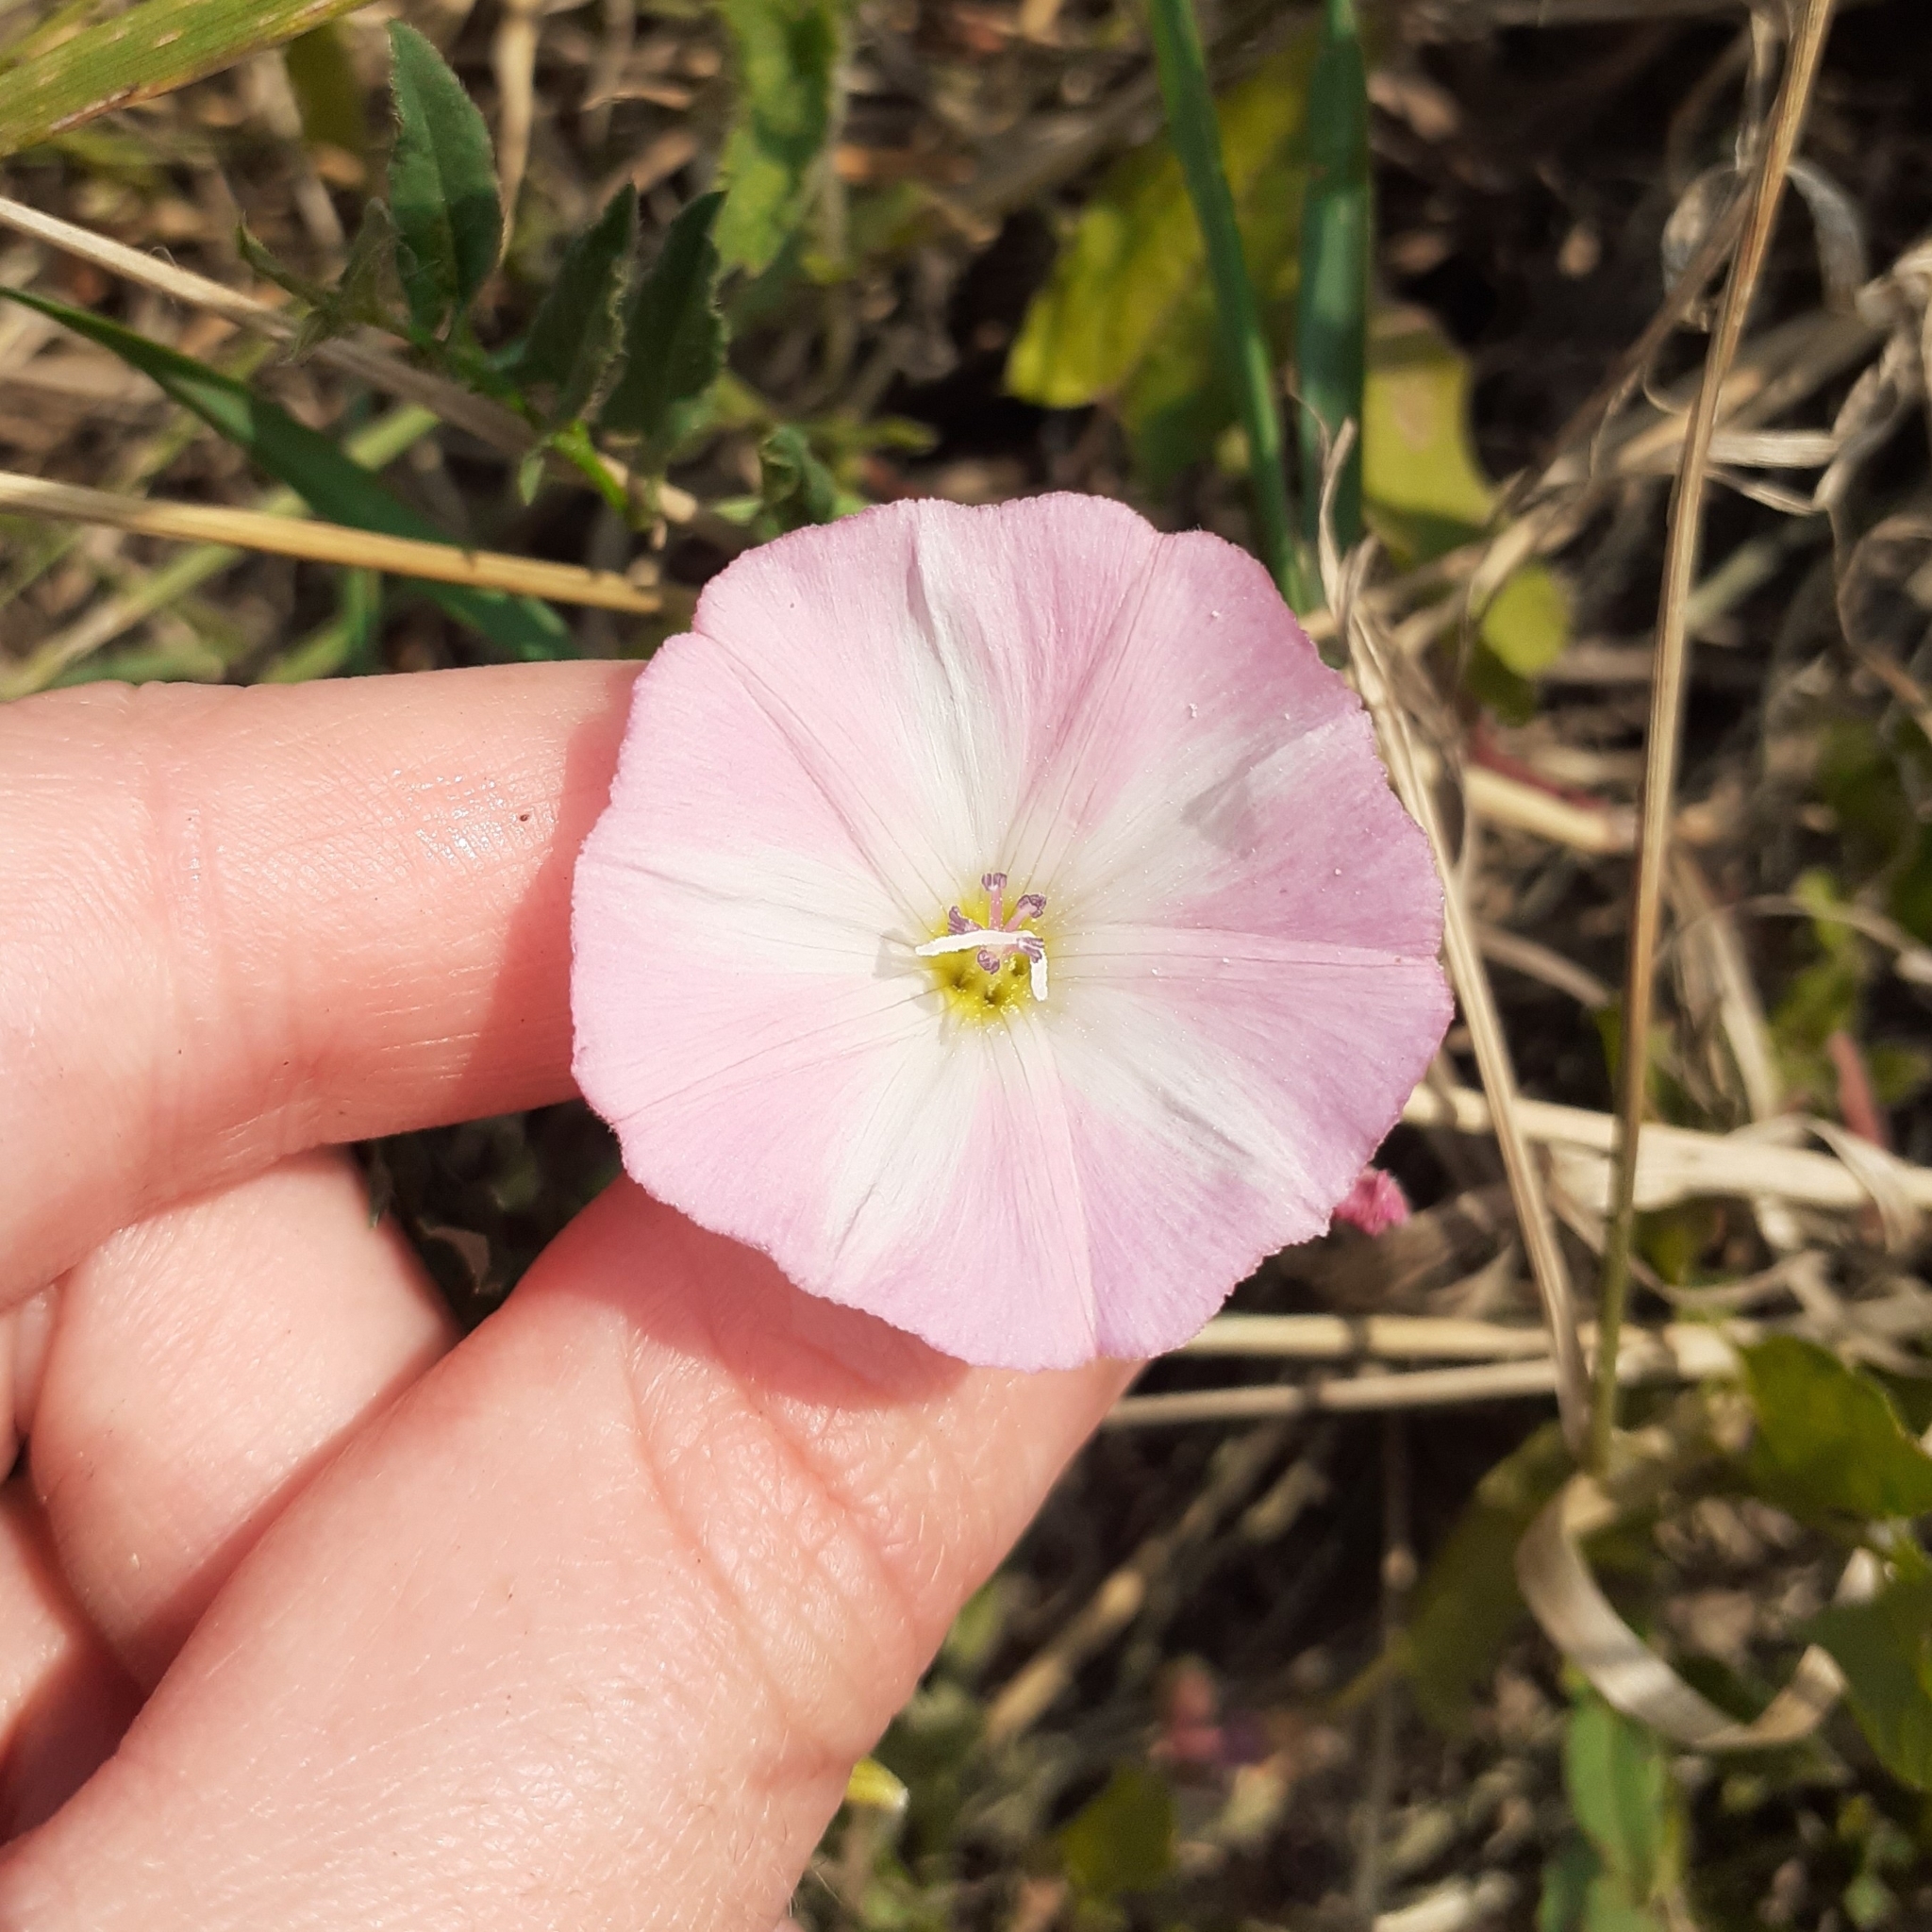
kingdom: Plantae
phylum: Tracheophyta
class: Magnoliopsida
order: Solanales
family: Convolvulaceae
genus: Convolvulus
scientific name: Convolvulus arvensis
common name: Field bindweed
